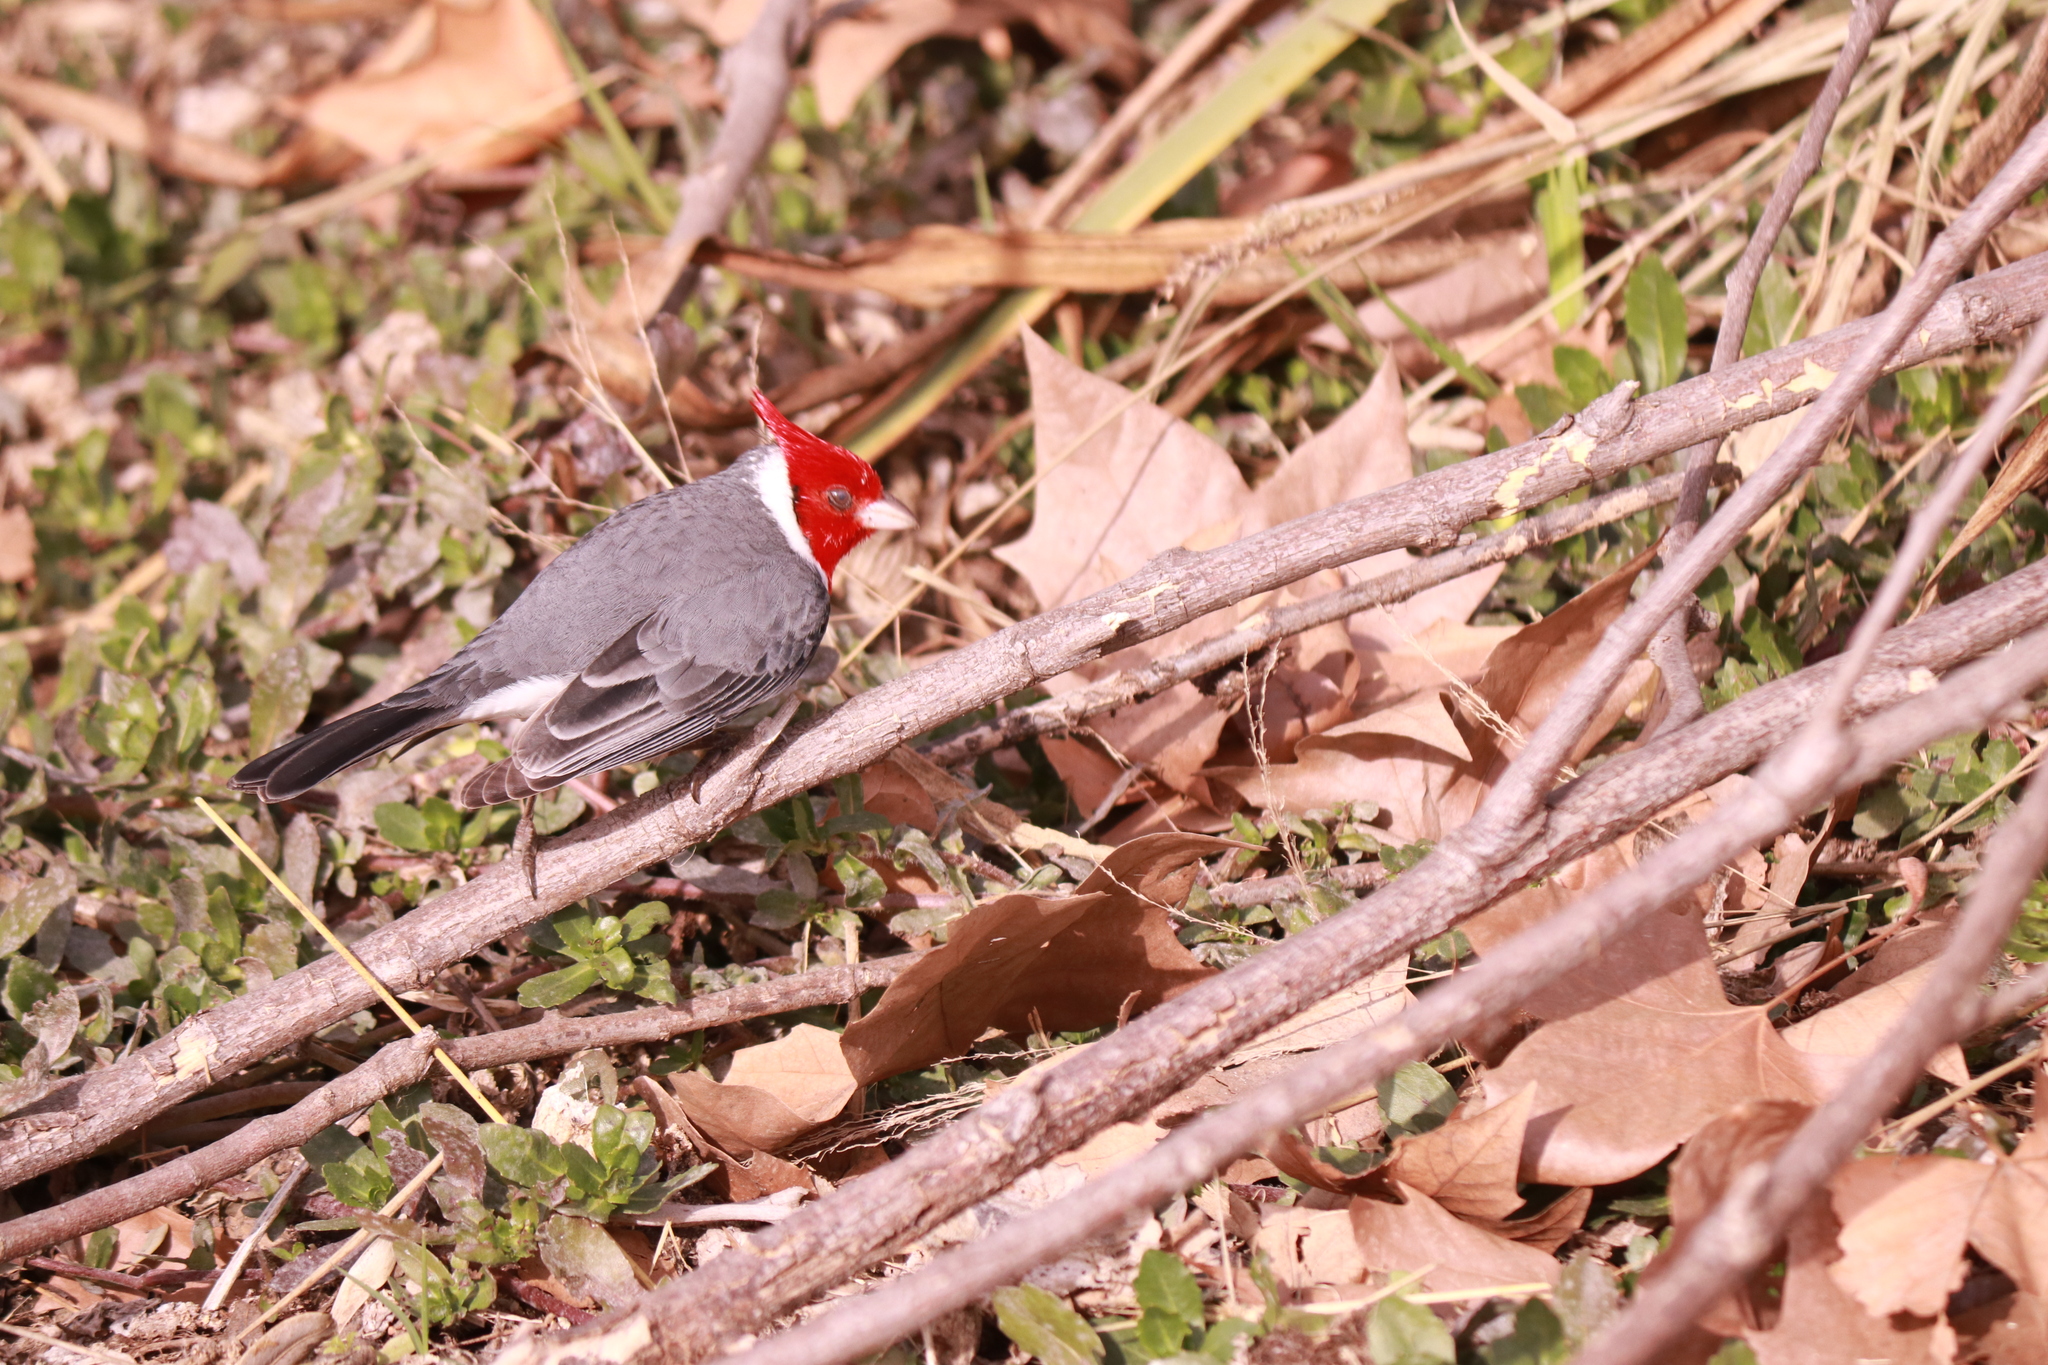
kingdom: Animalia
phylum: Chordata
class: Aves
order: Passeriformes
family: Thraupidae
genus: Paroaria
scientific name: Paroaria coronata
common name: Red-crested cardinal
